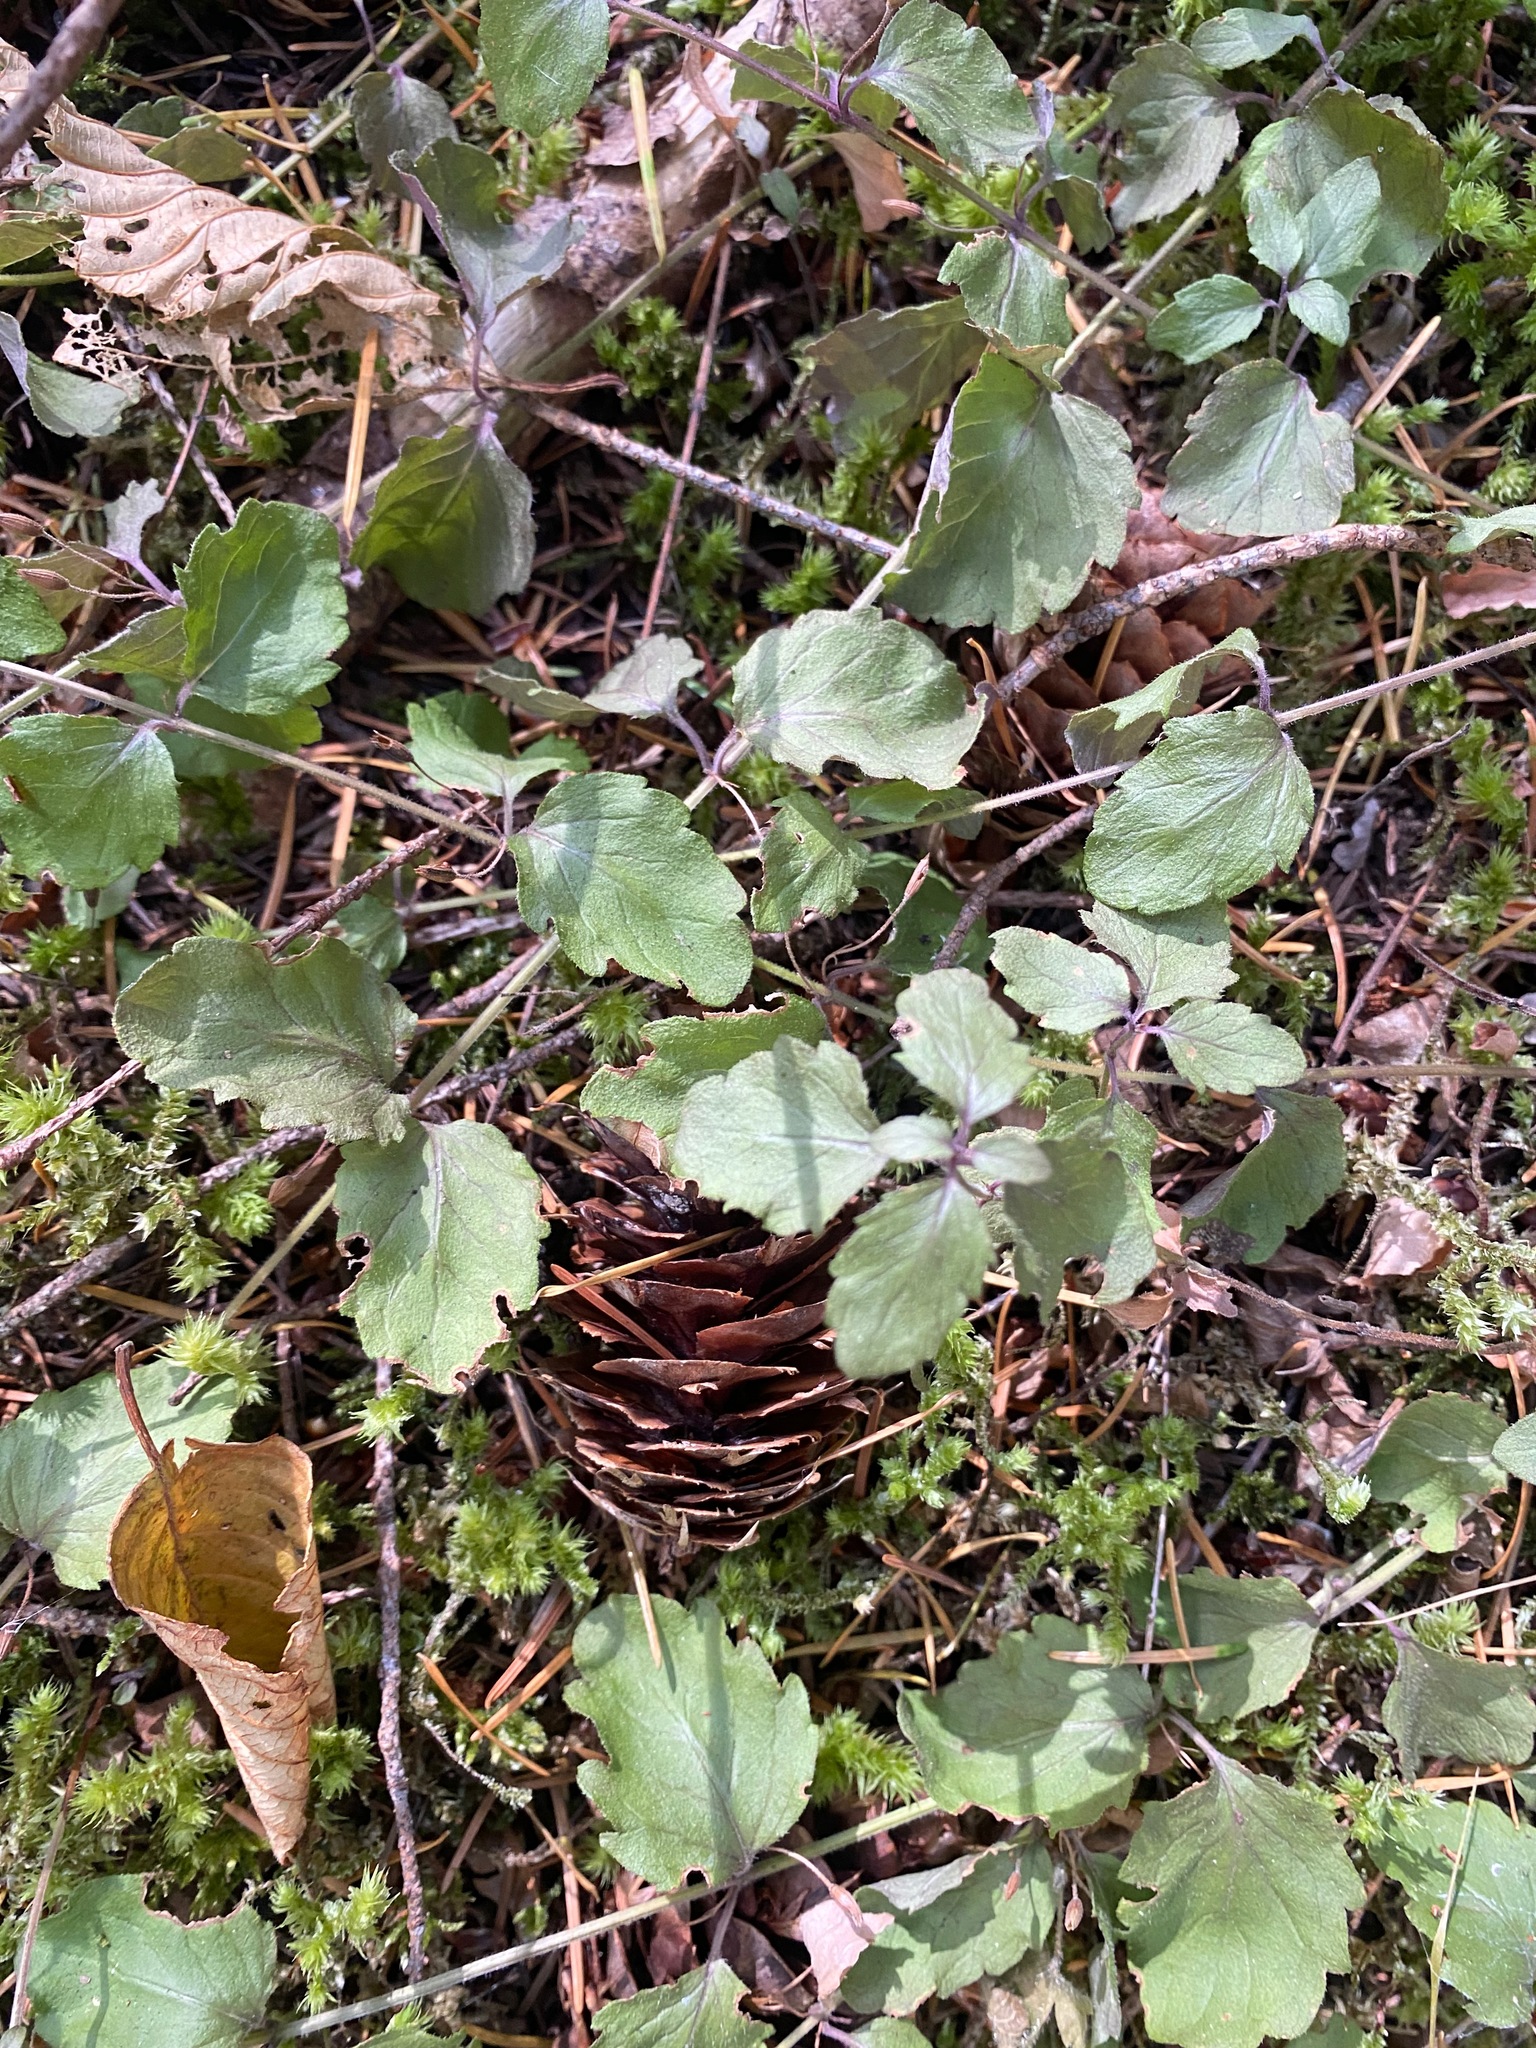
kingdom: Plantae
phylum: Tracheophyta
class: Magnoliopsida
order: Lamiales
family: Lamiaceae
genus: Micromeria
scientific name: Micromeria douglasii
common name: Yerba buena
